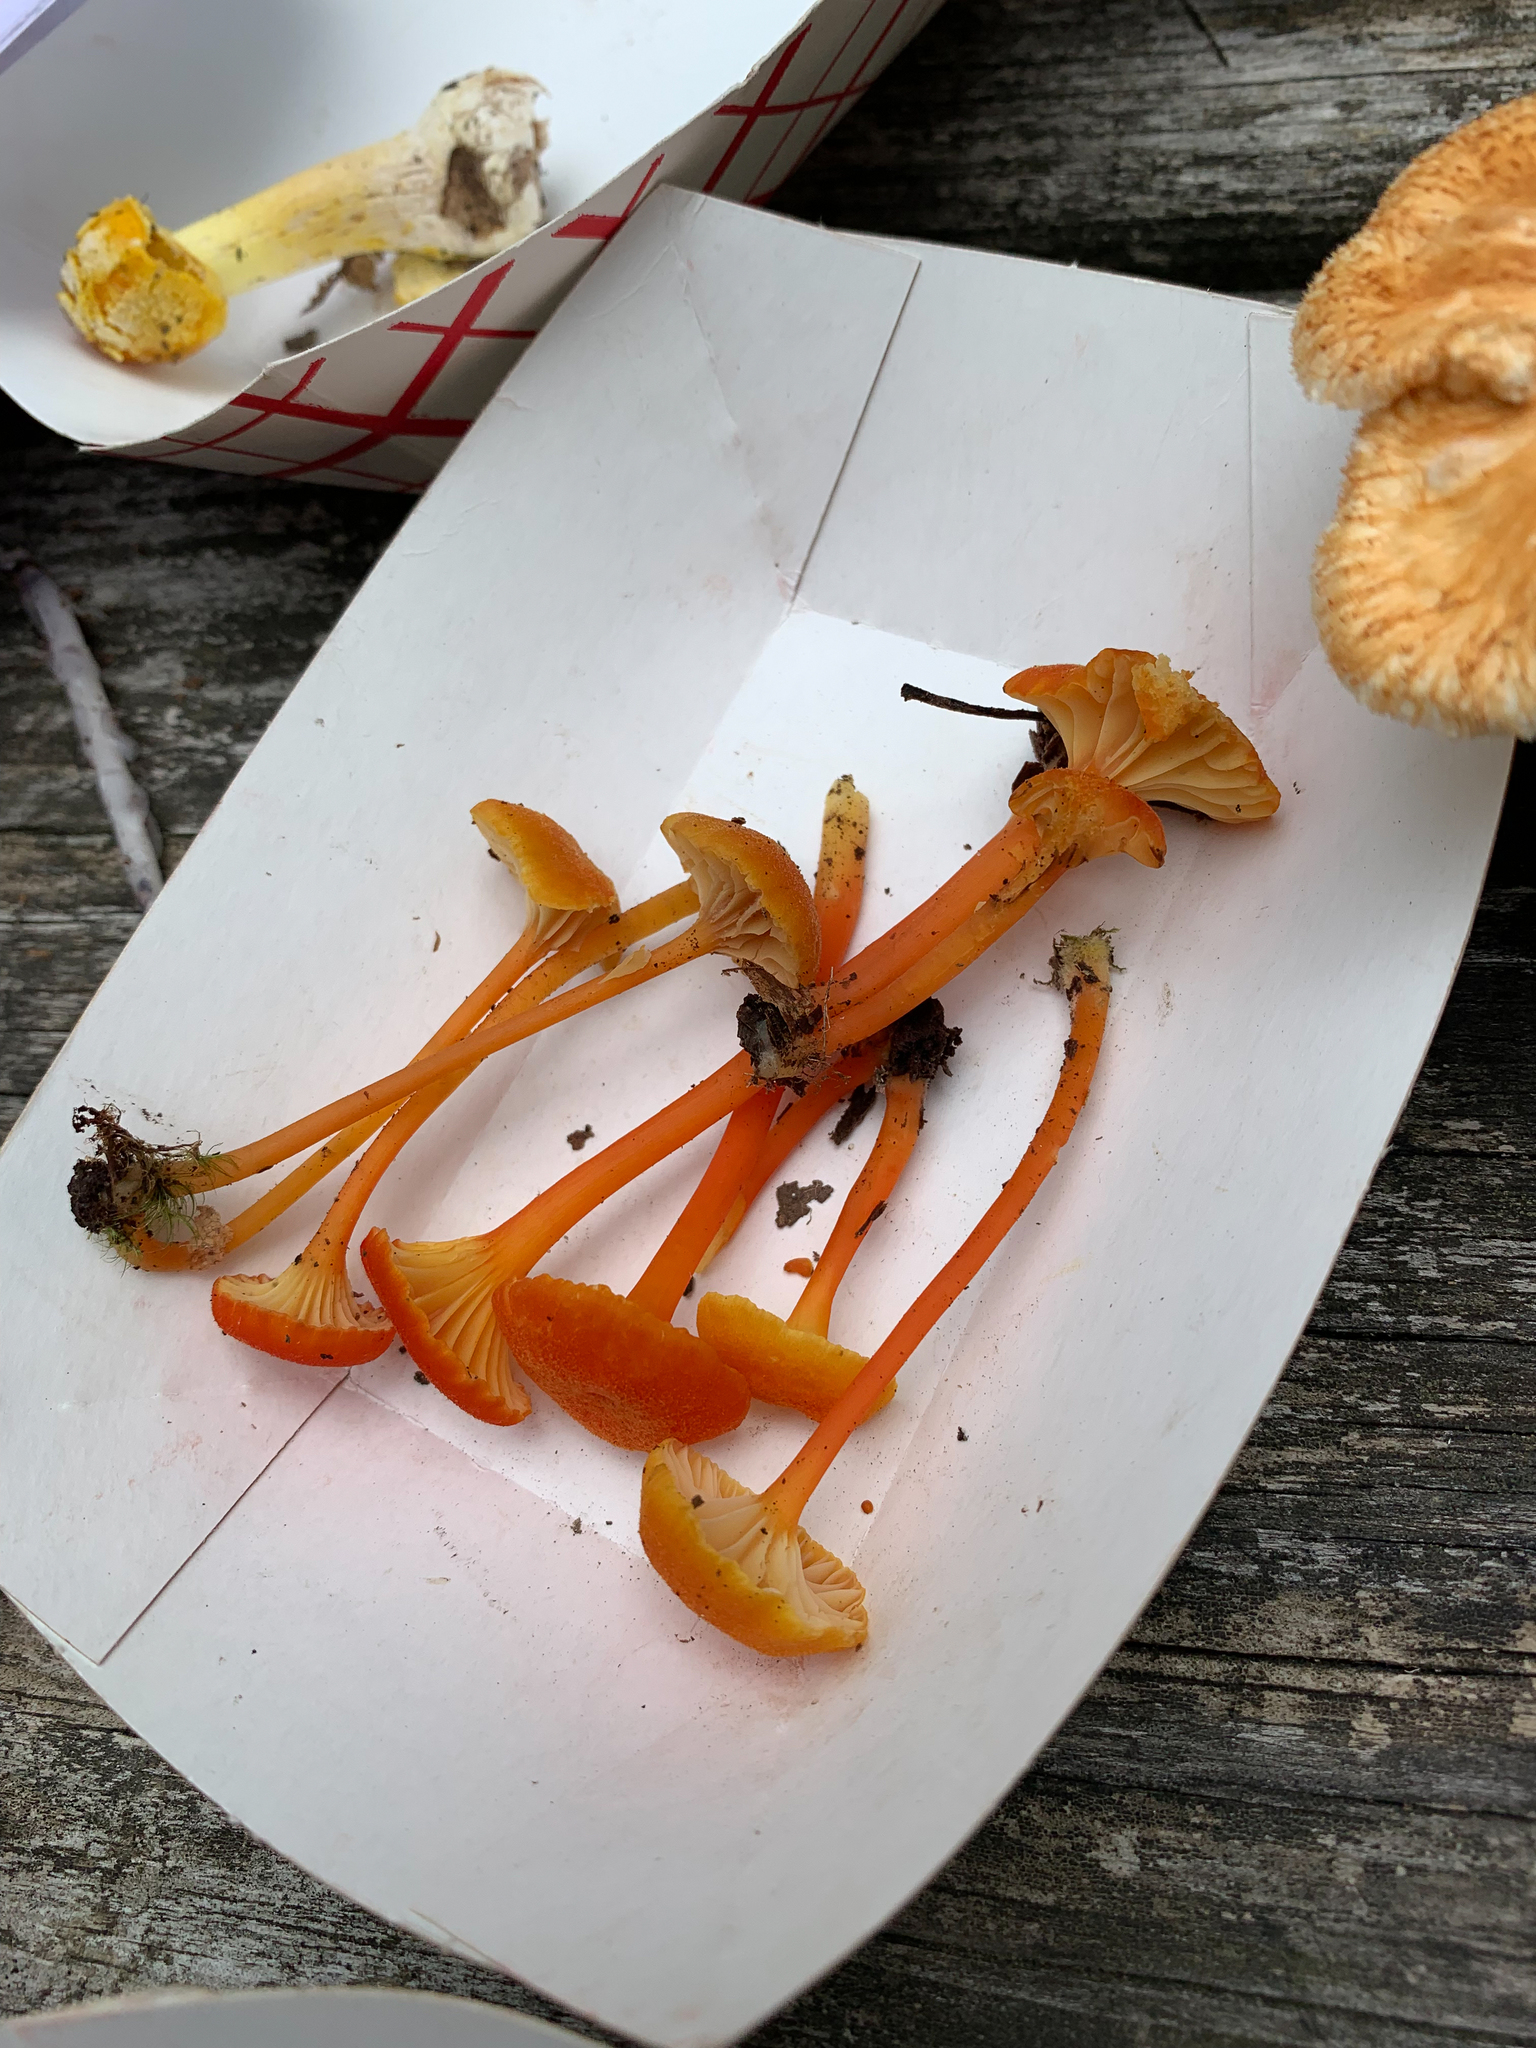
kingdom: Fungi
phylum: Basidiomycota
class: Agaricomycetes
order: Agaricales
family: Hygrophoraceae
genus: Hygrocybe
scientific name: Hygrocybe cantharellus
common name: Goblet waxcap
